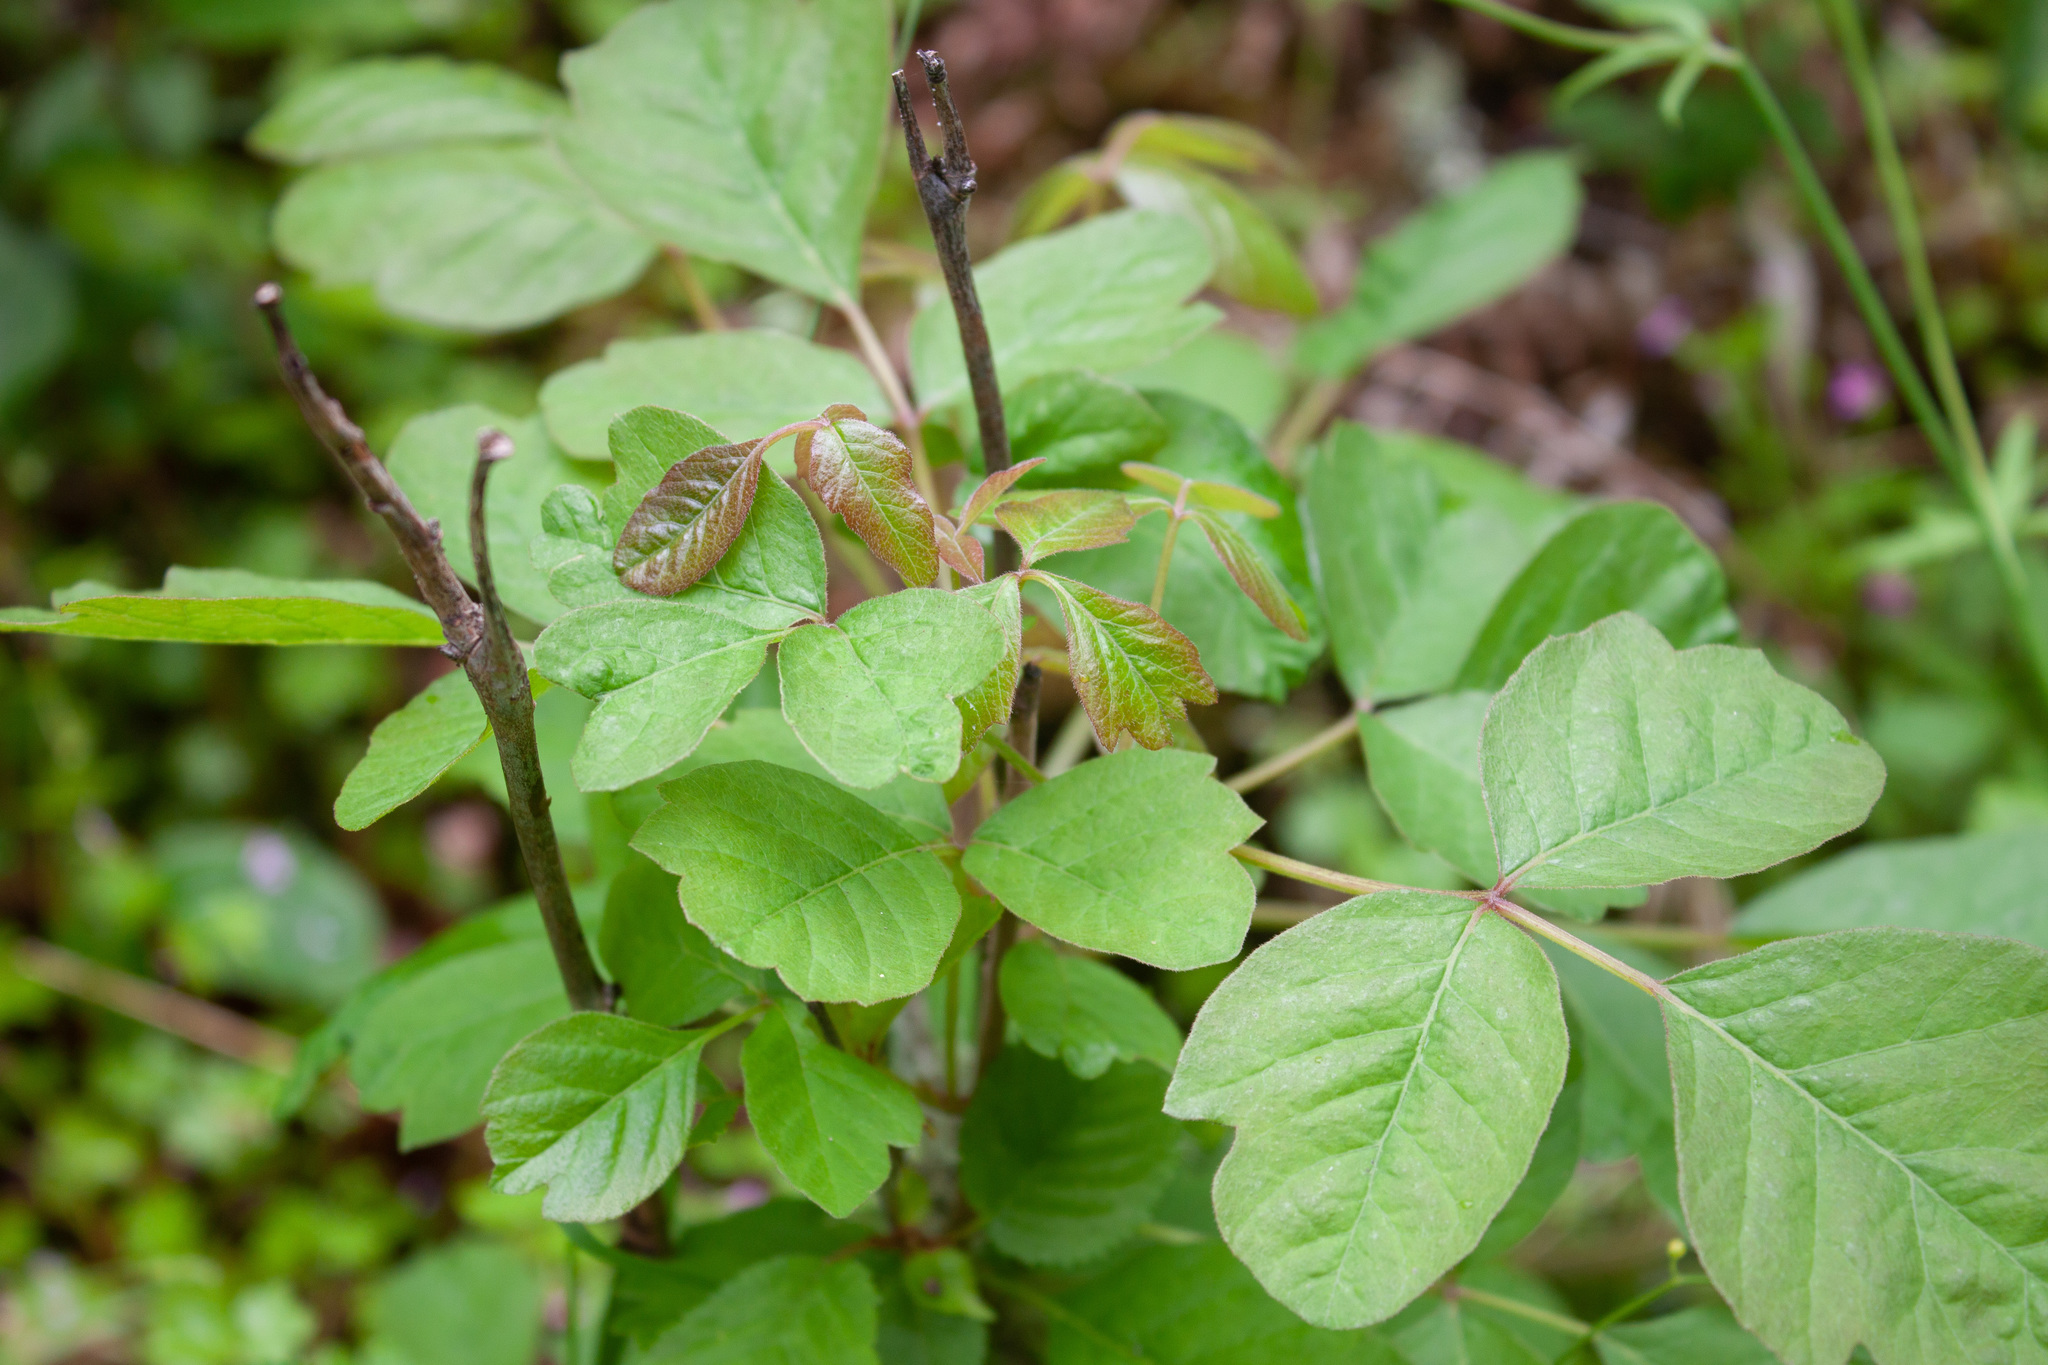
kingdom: Plantae
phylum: Tracheophyta
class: Magnoliopsida
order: Sapindales
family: Anacardiaceae
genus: Toxicodendron
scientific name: Toxicodendron diversilobum
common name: Pacific poison-oak
